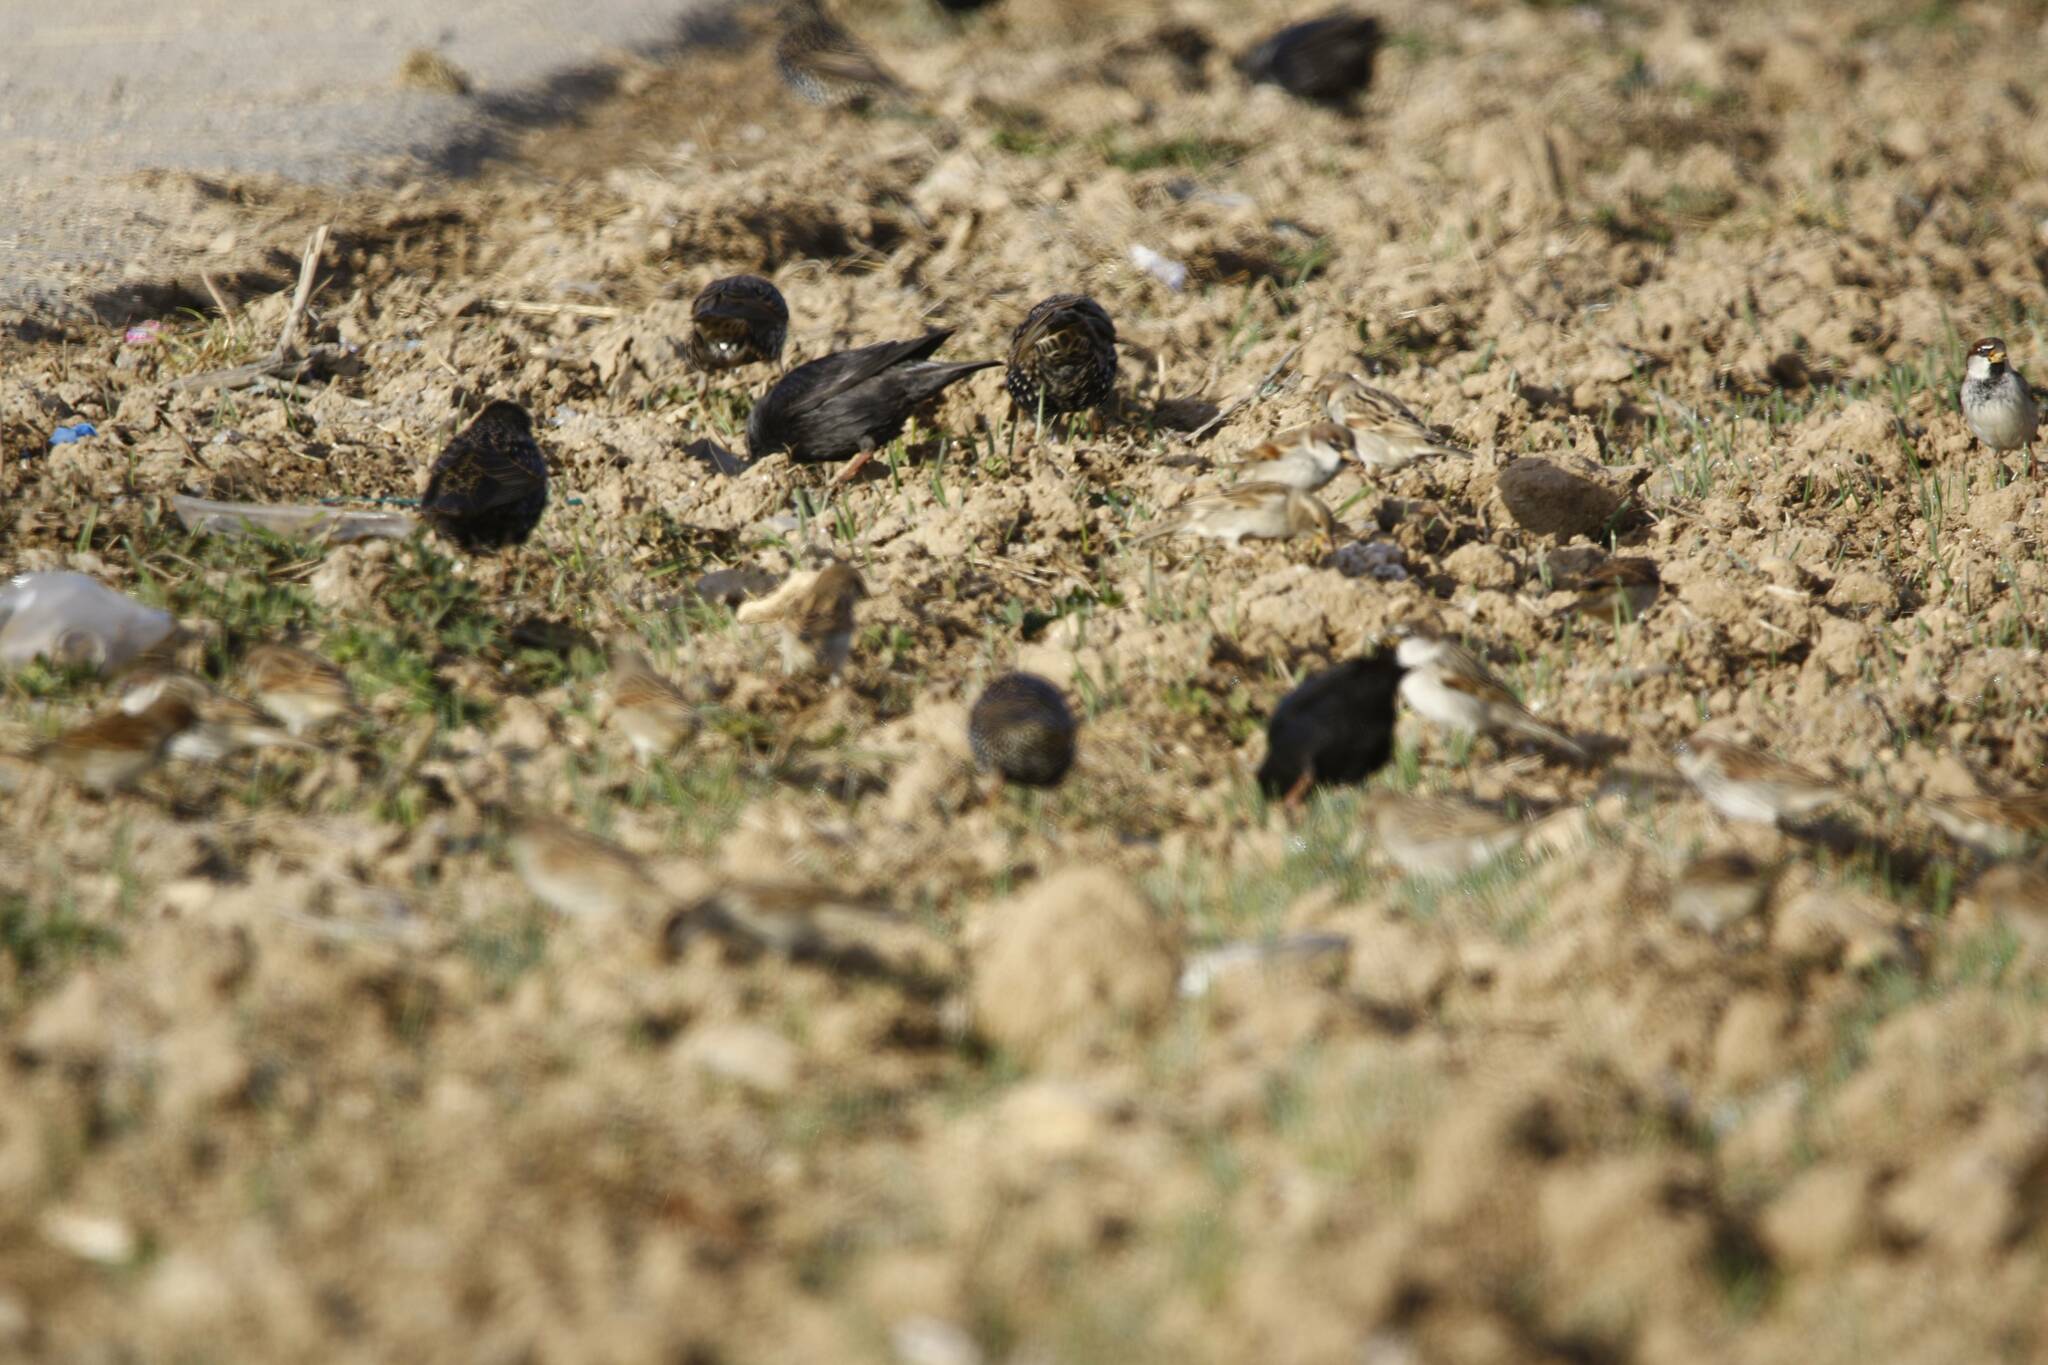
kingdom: Animalia
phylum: Chordata
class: Aves
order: Passeriformes
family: Sturnidae
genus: Sturnus
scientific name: Sturnus unicolor
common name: Spotless starling
